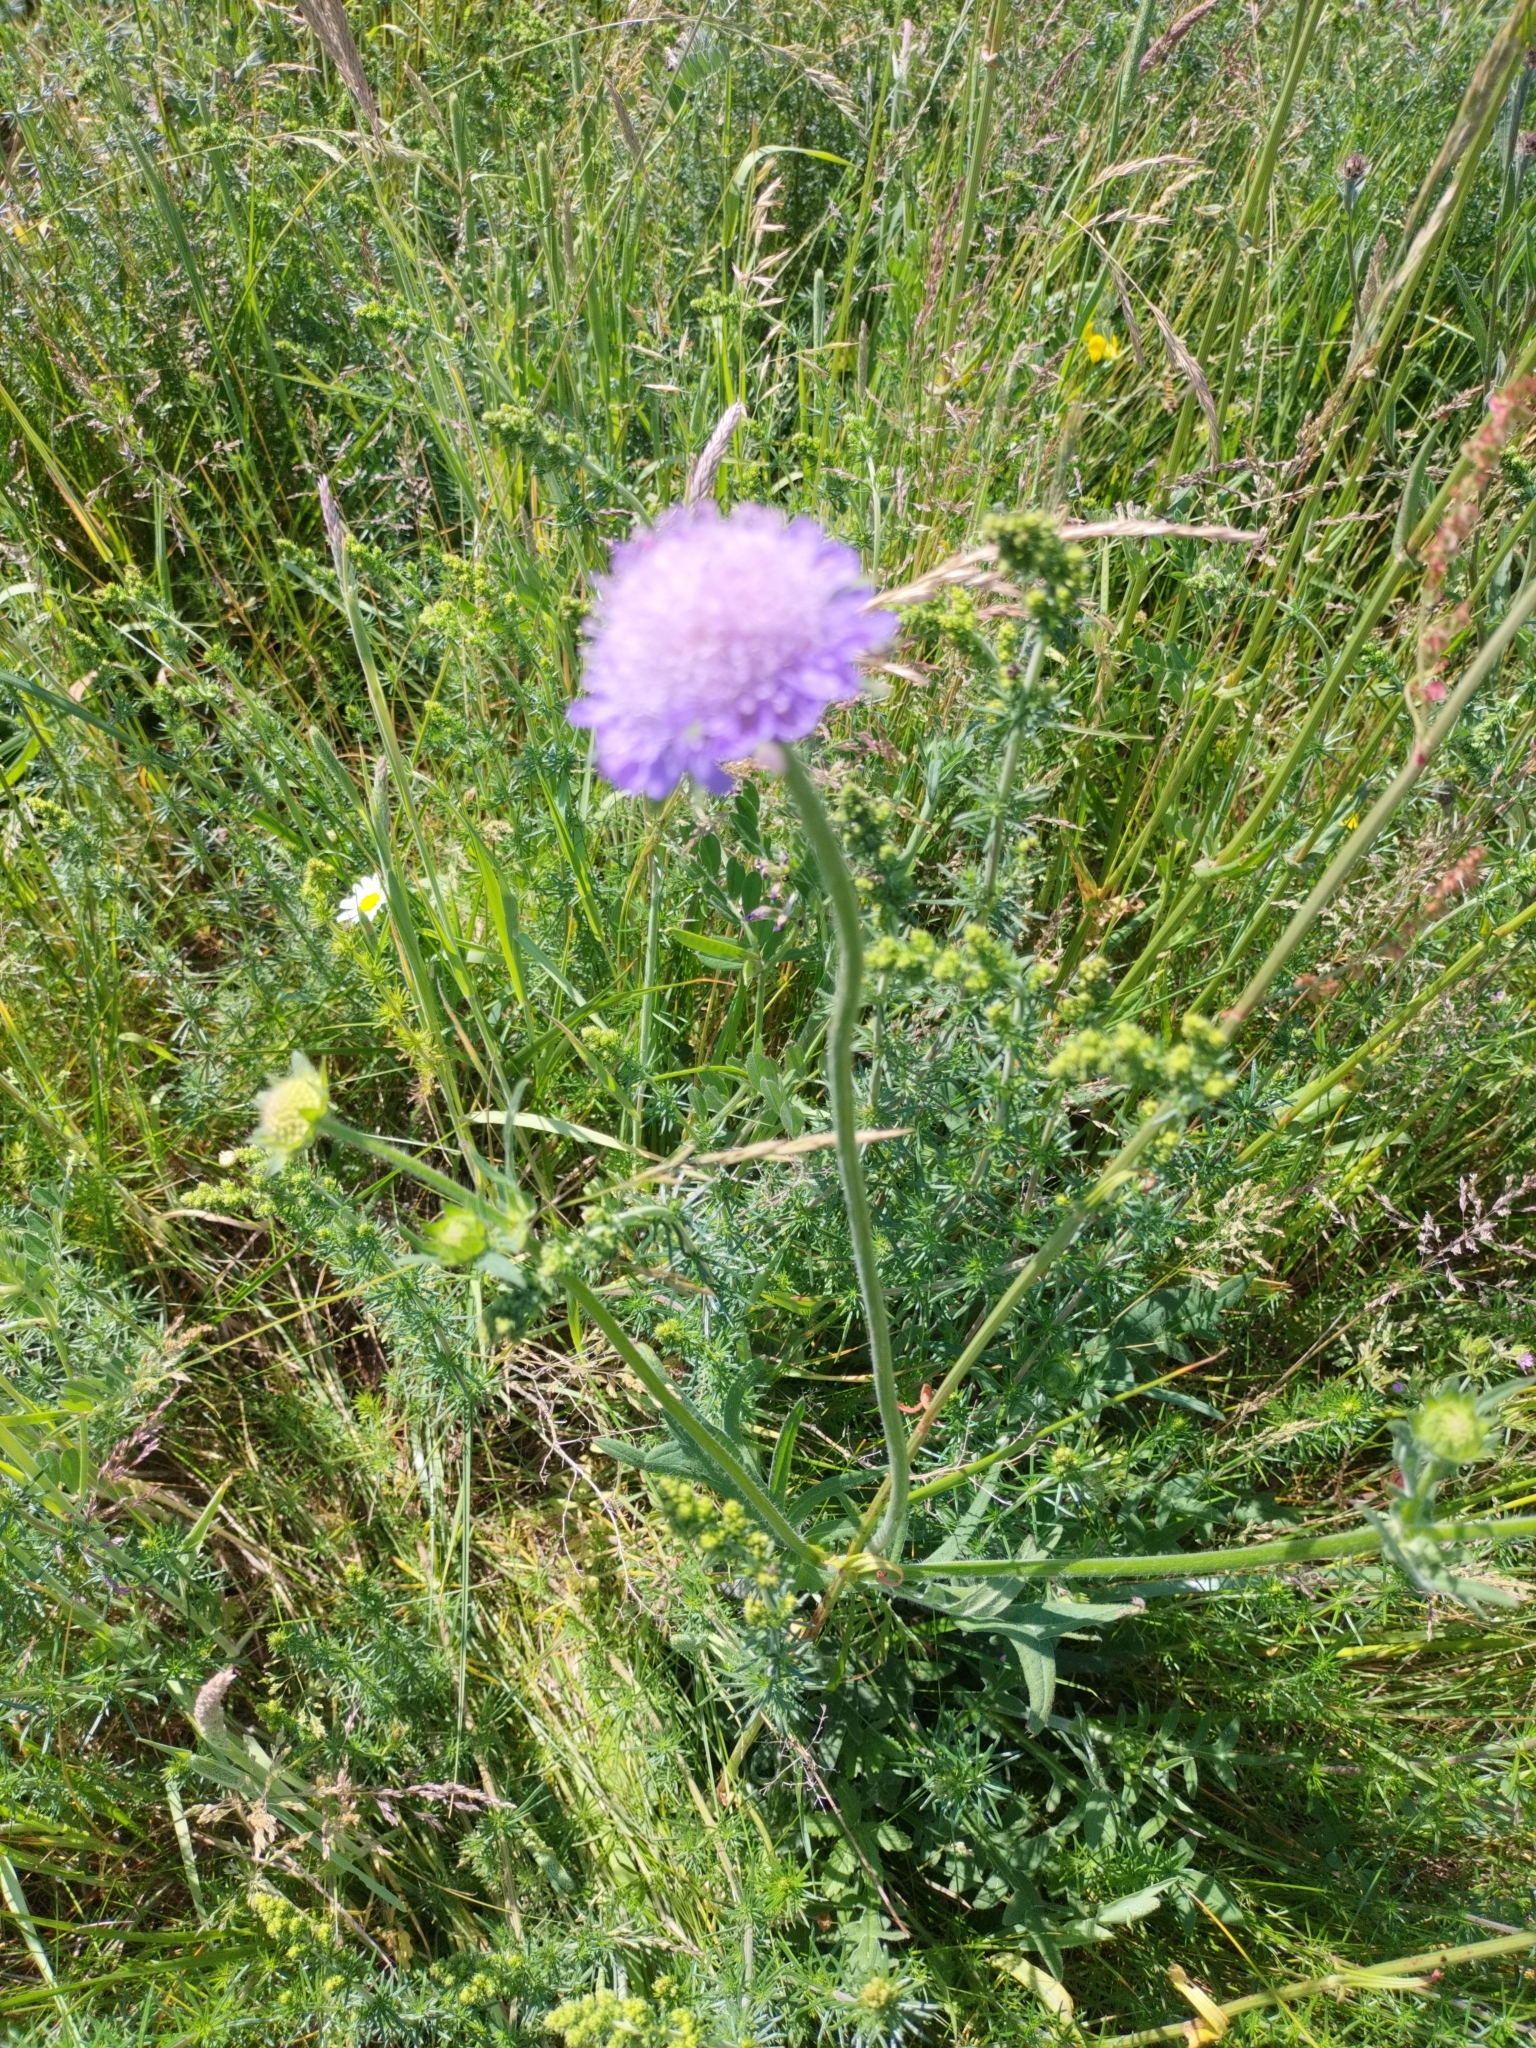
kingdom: Plantae
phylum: Tracheophyta
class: Magnoliopsida
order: Dipsacales
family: Caprifoliaceae
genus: Knautia
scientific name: Knautia arvensis
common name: Field scabiosa
